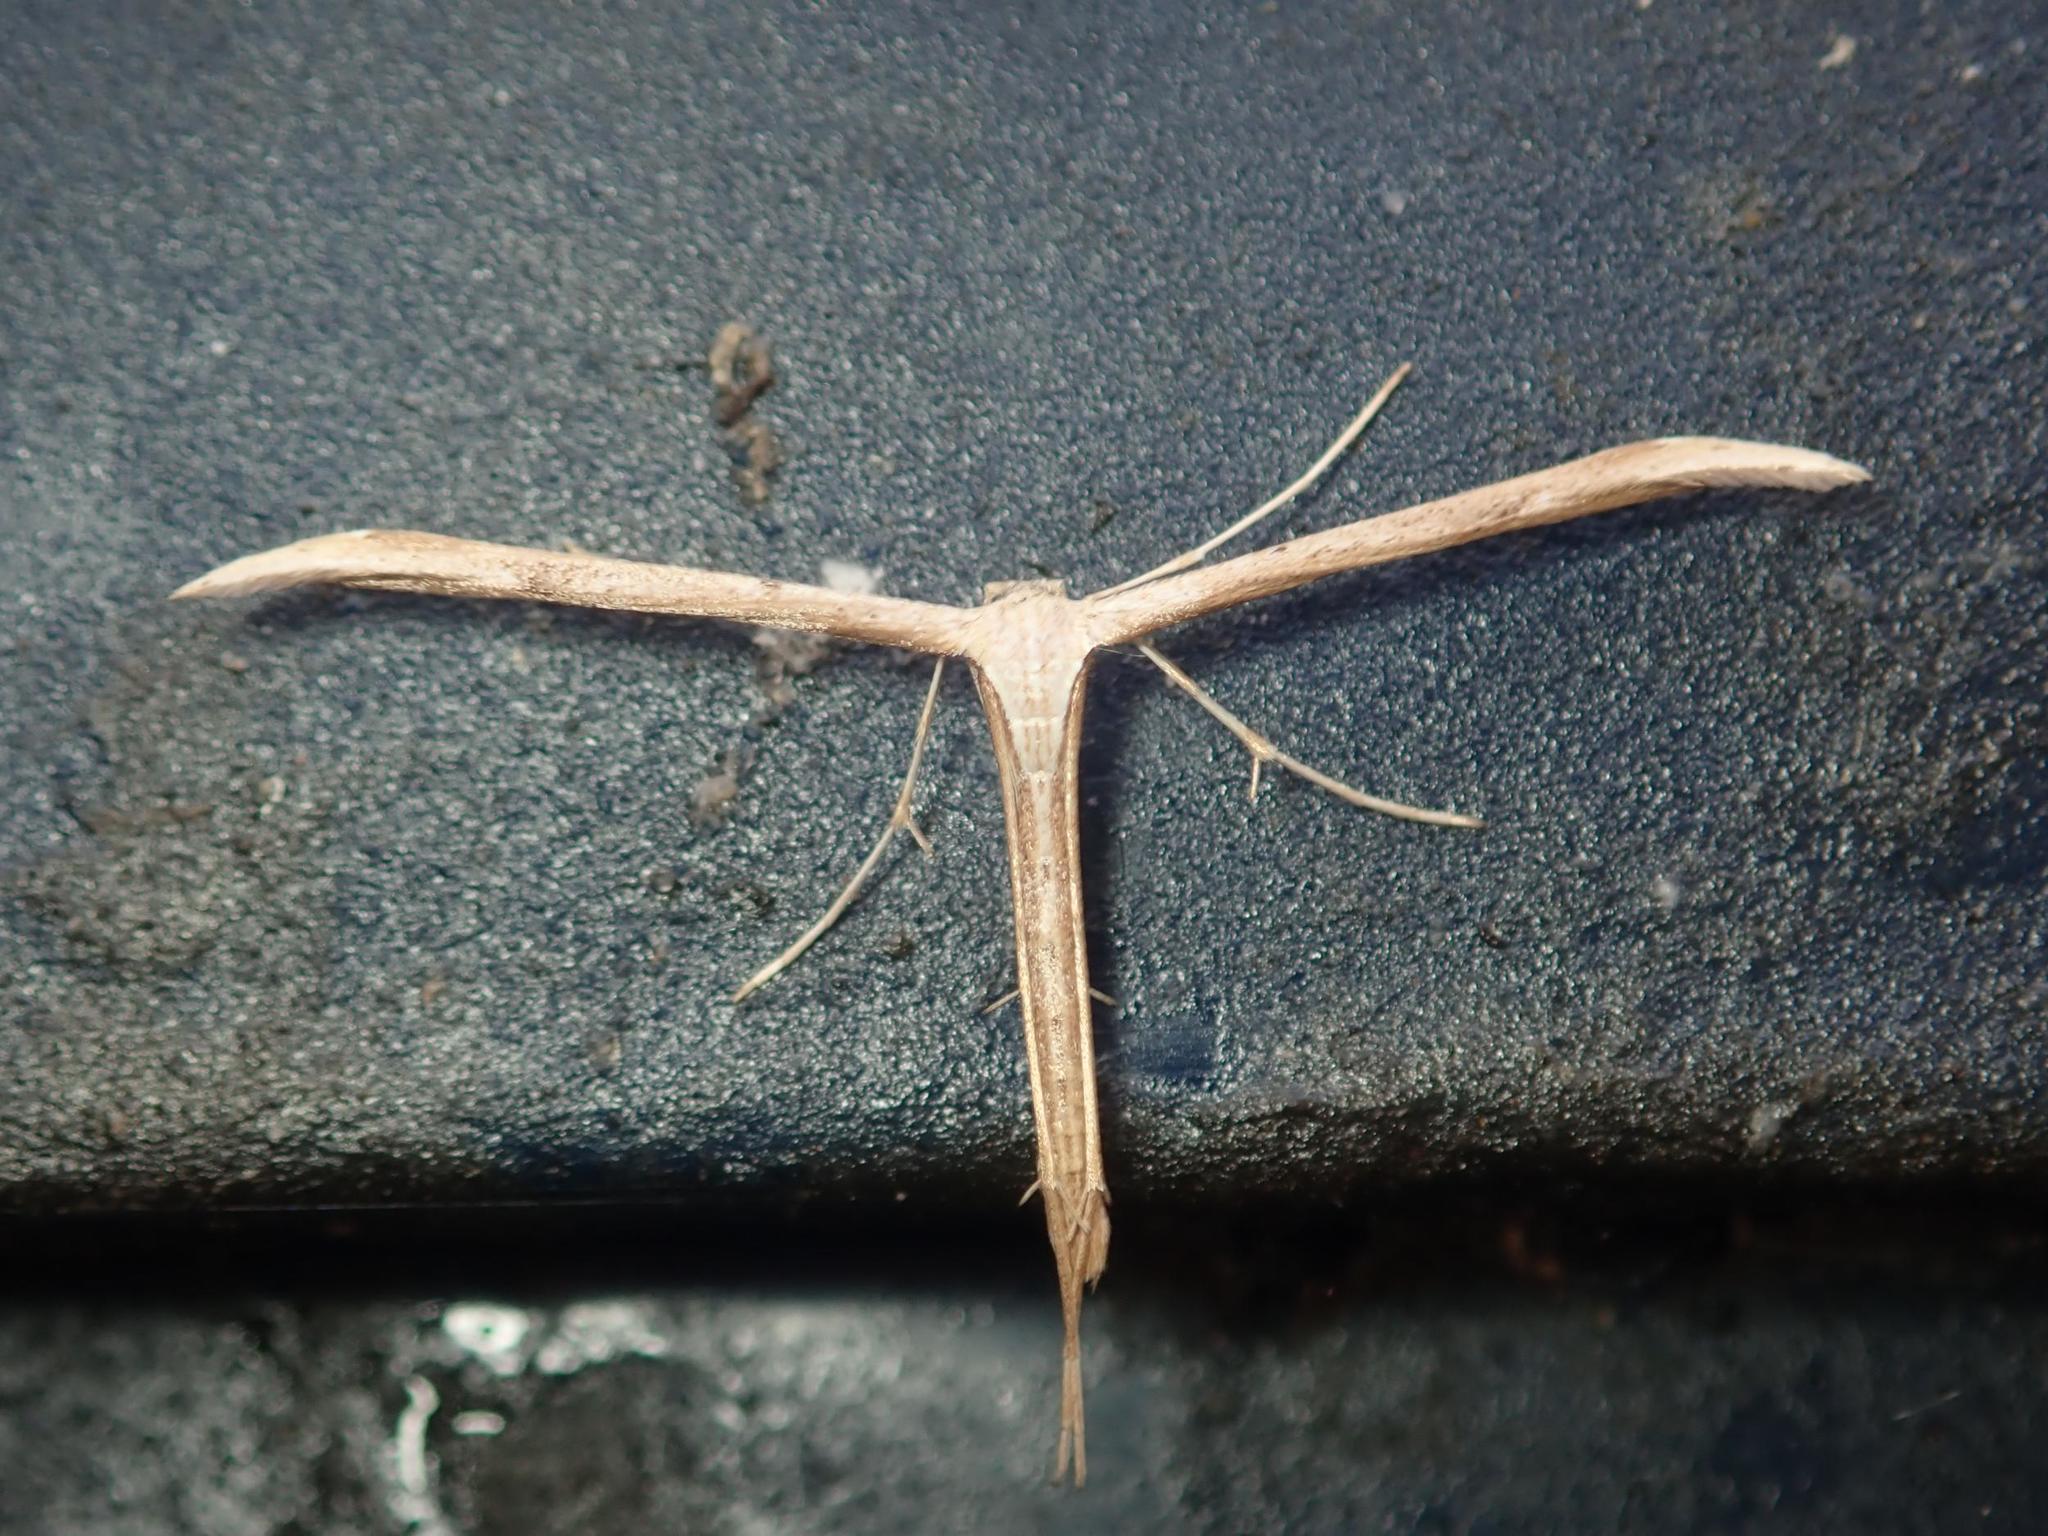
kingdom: Animalia
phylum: Arthropoda
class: Insecta
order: Lepidoptera
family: Pterophoridae
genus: Emmelina
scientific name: Emmelina monodactyla
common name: Common plume
